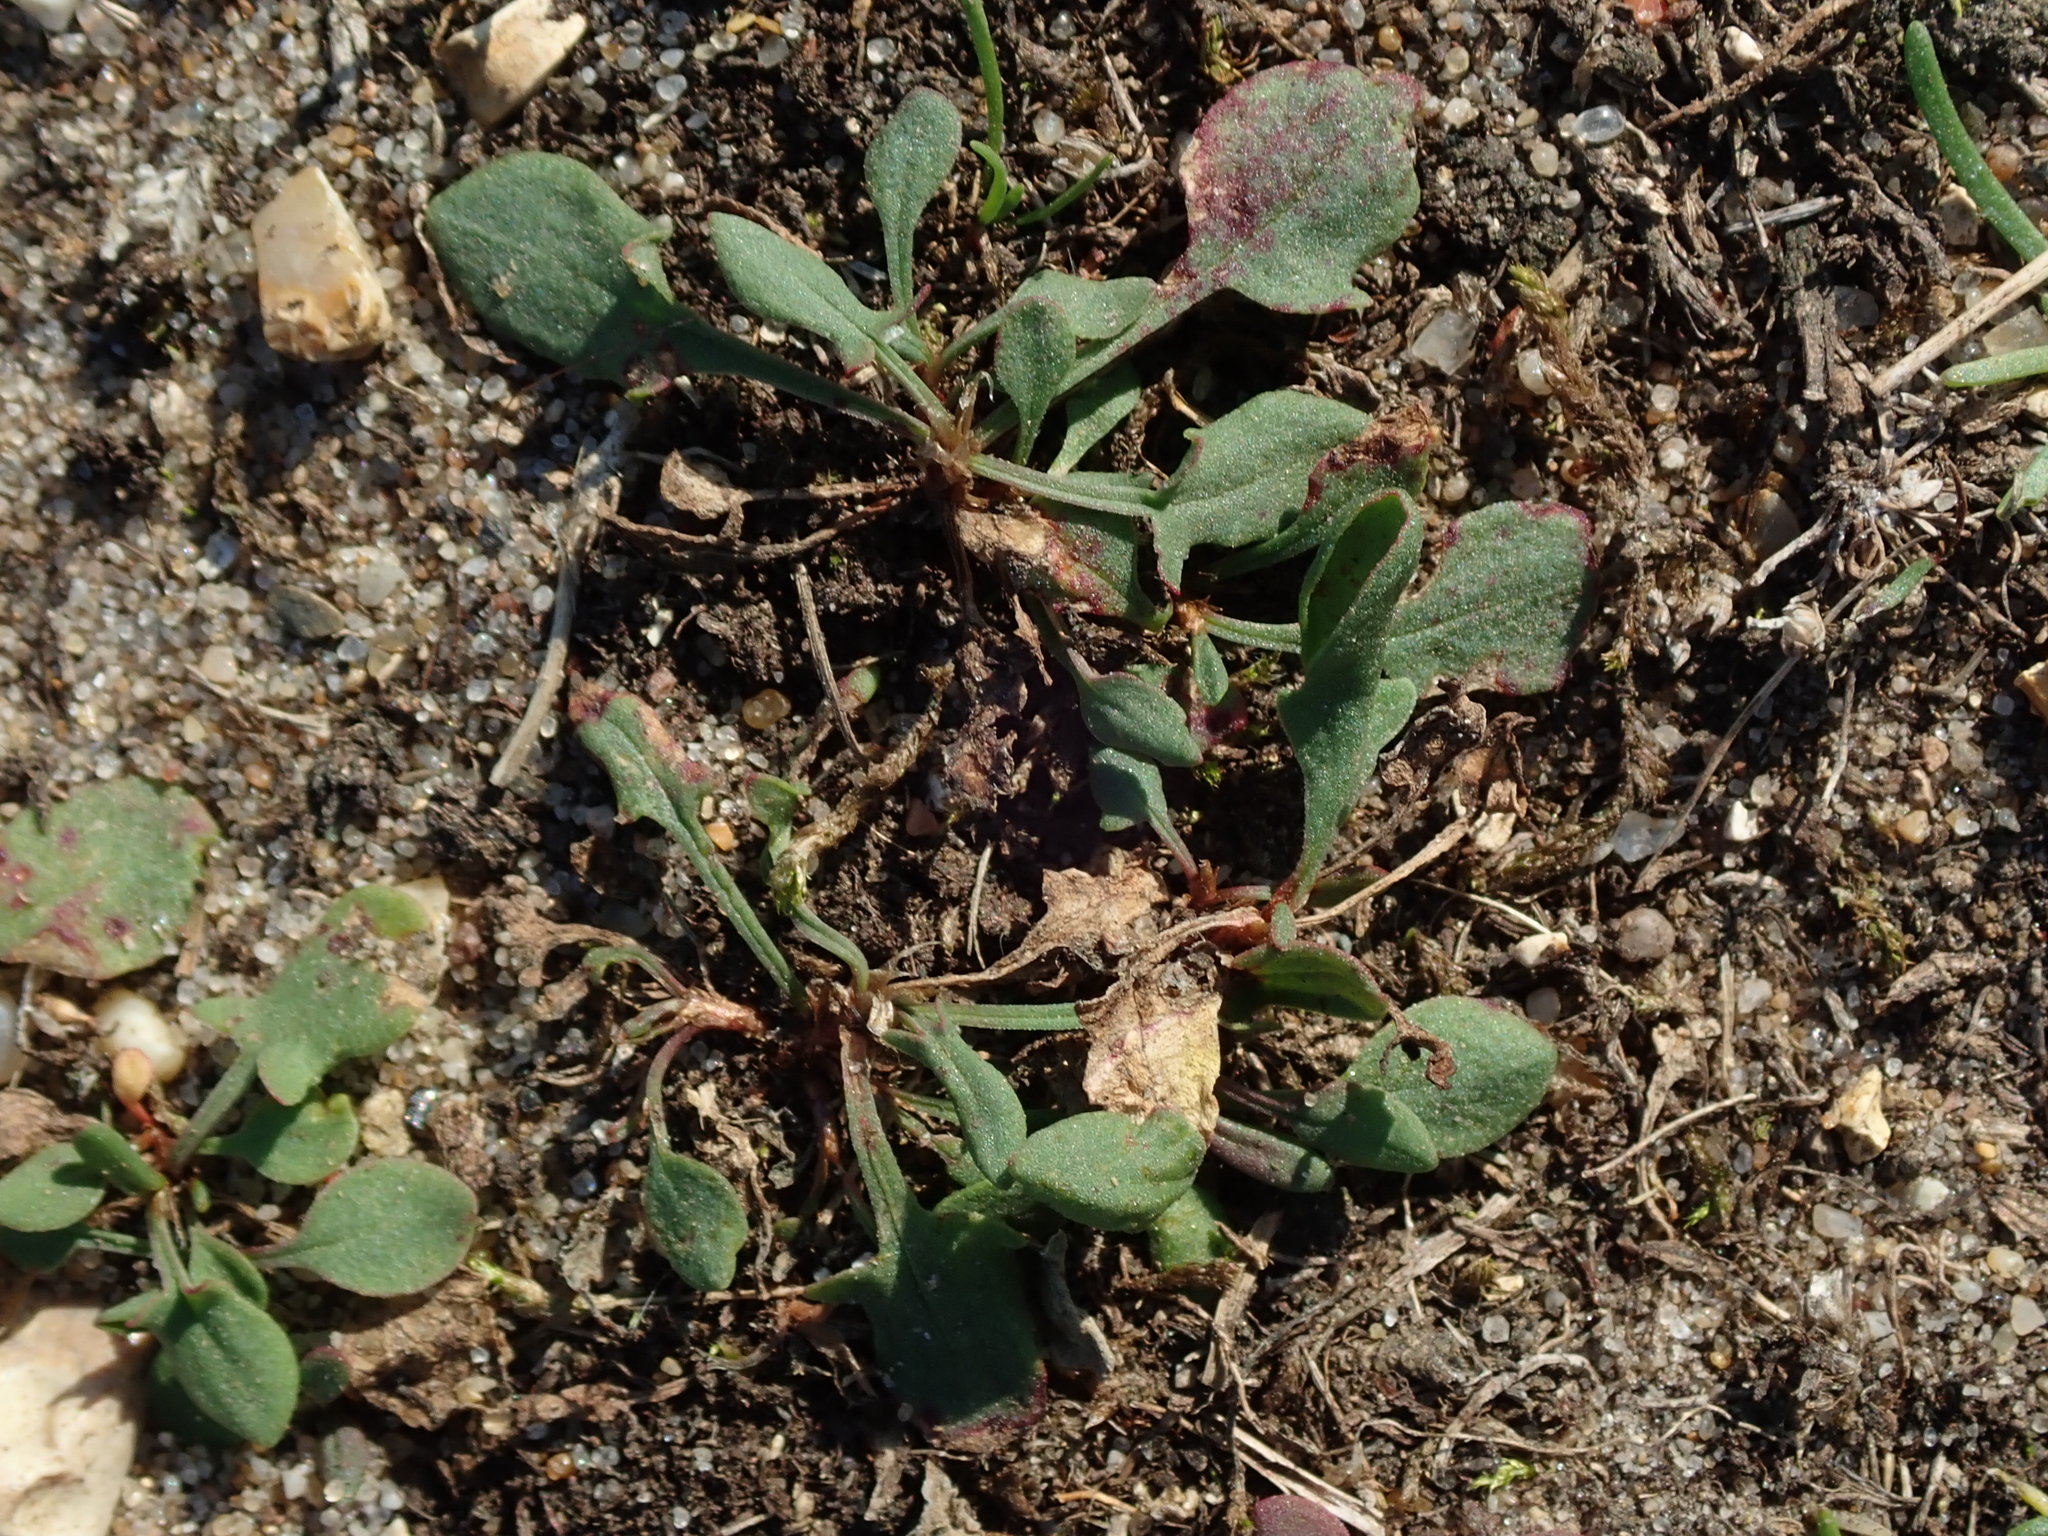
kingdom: Plantae
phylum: Tracheophyta
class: Magnoliopsida
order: Caryophyllales
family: Polygonaceae
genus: Rumex
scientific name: Rumex acetosella
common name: Common sheep sorrel
